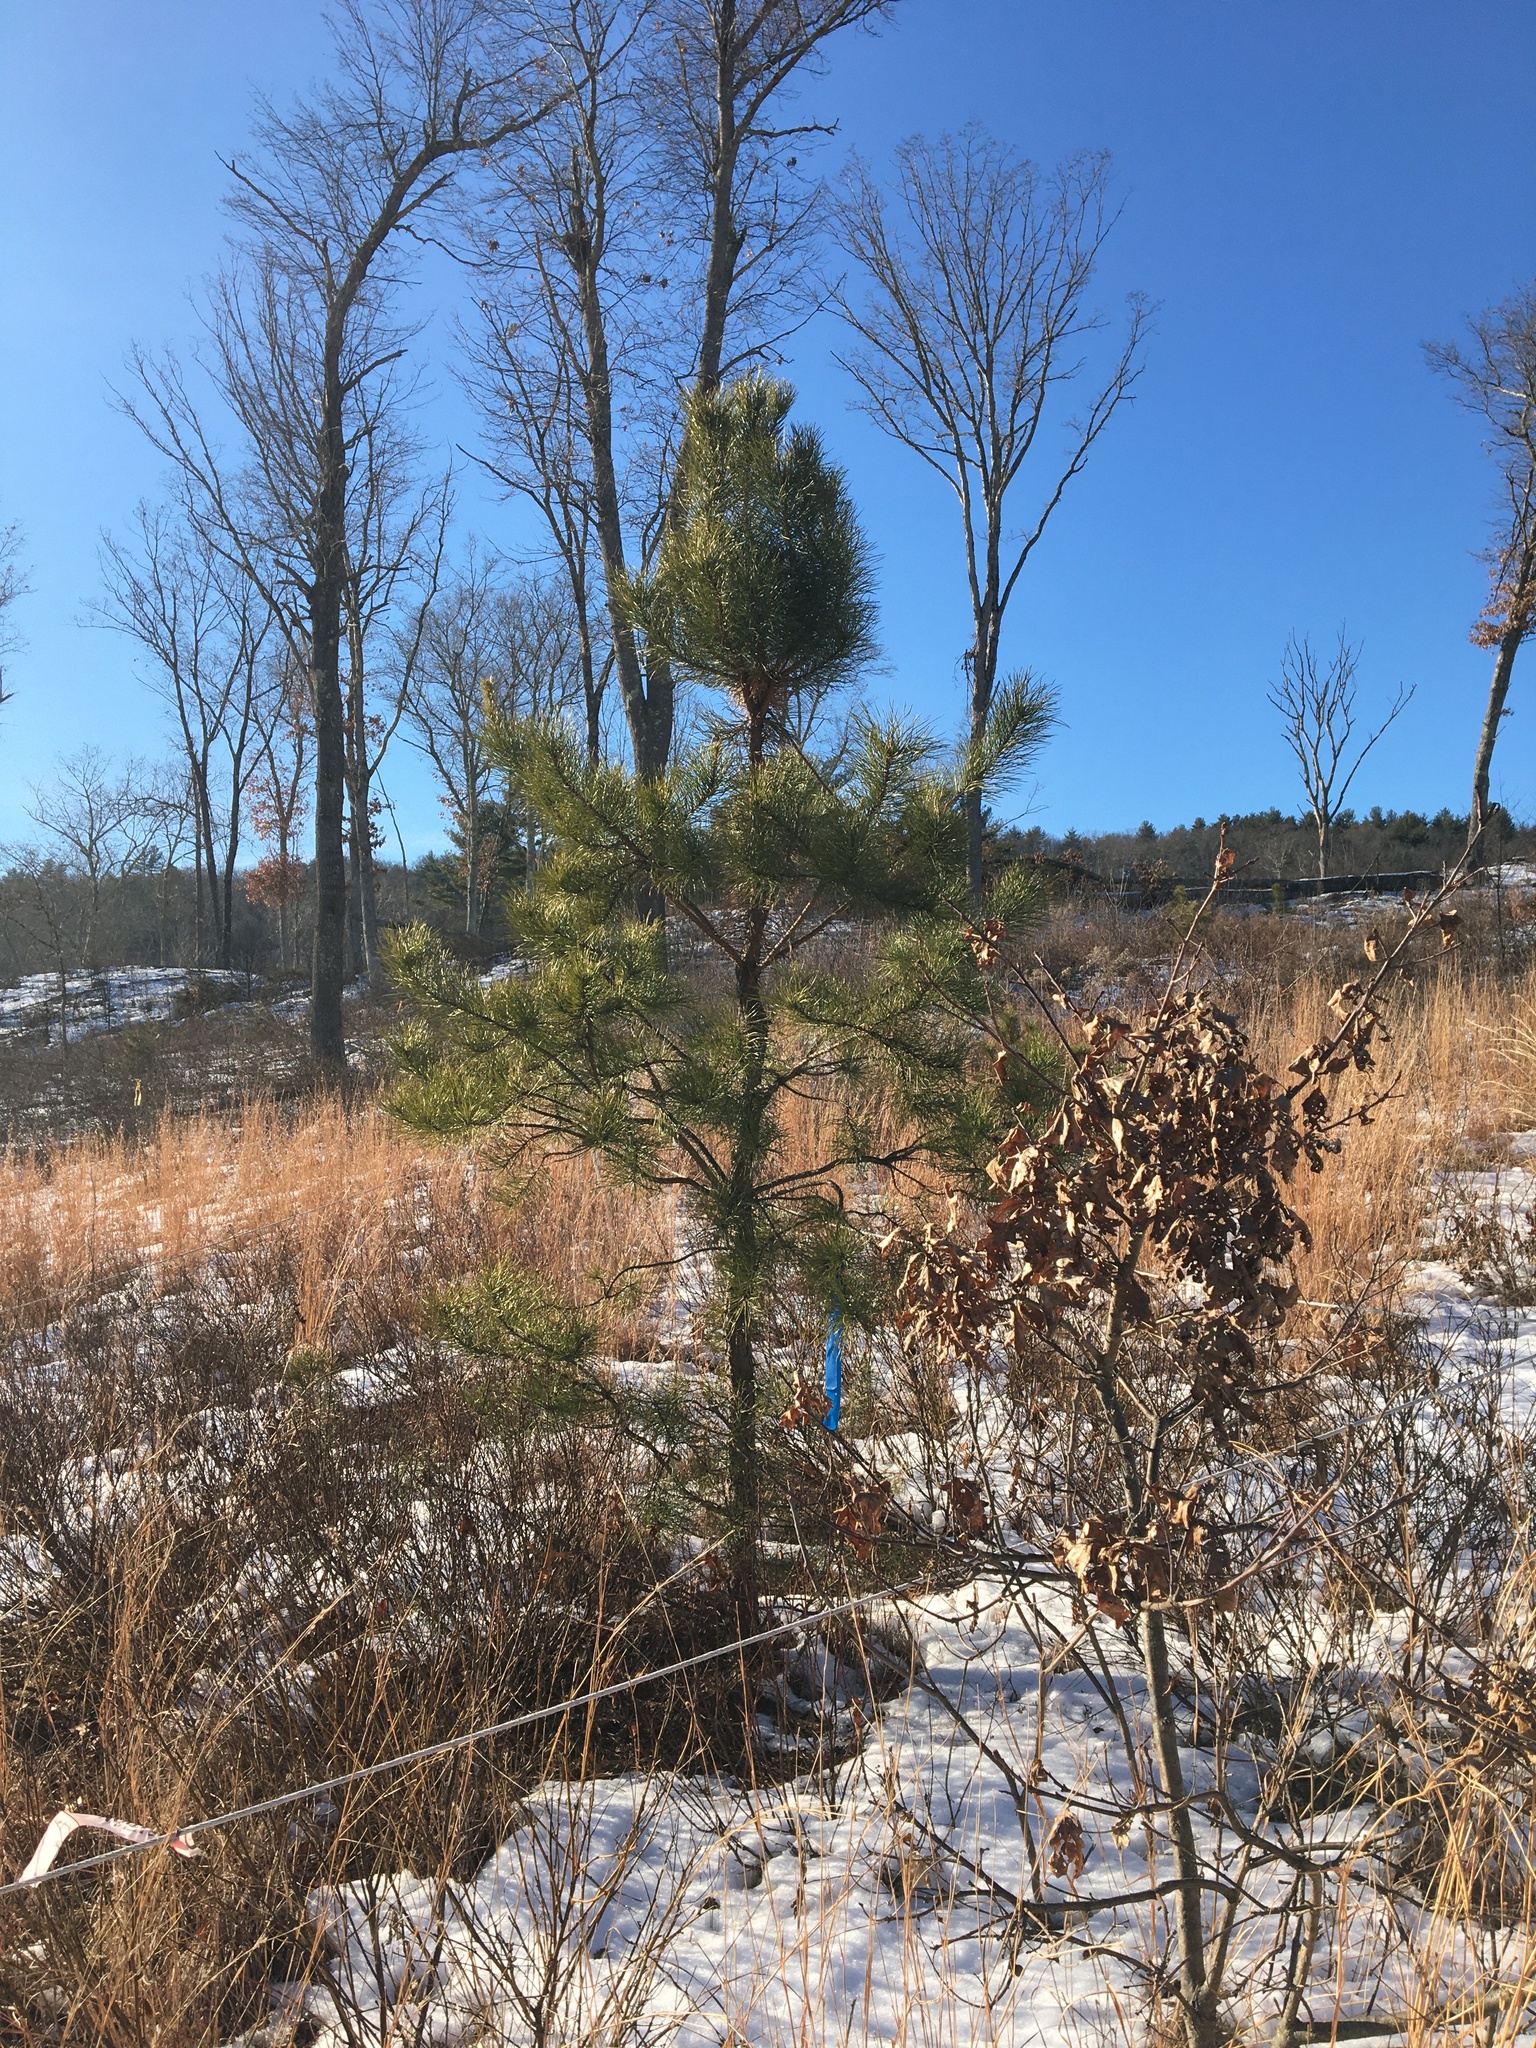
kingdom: Plantae
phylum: Tracheophyta
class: Pinopsida
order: Pinales
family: Pinaceae
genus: Pinus
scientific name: Pinus rigida
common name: Pitch pine
